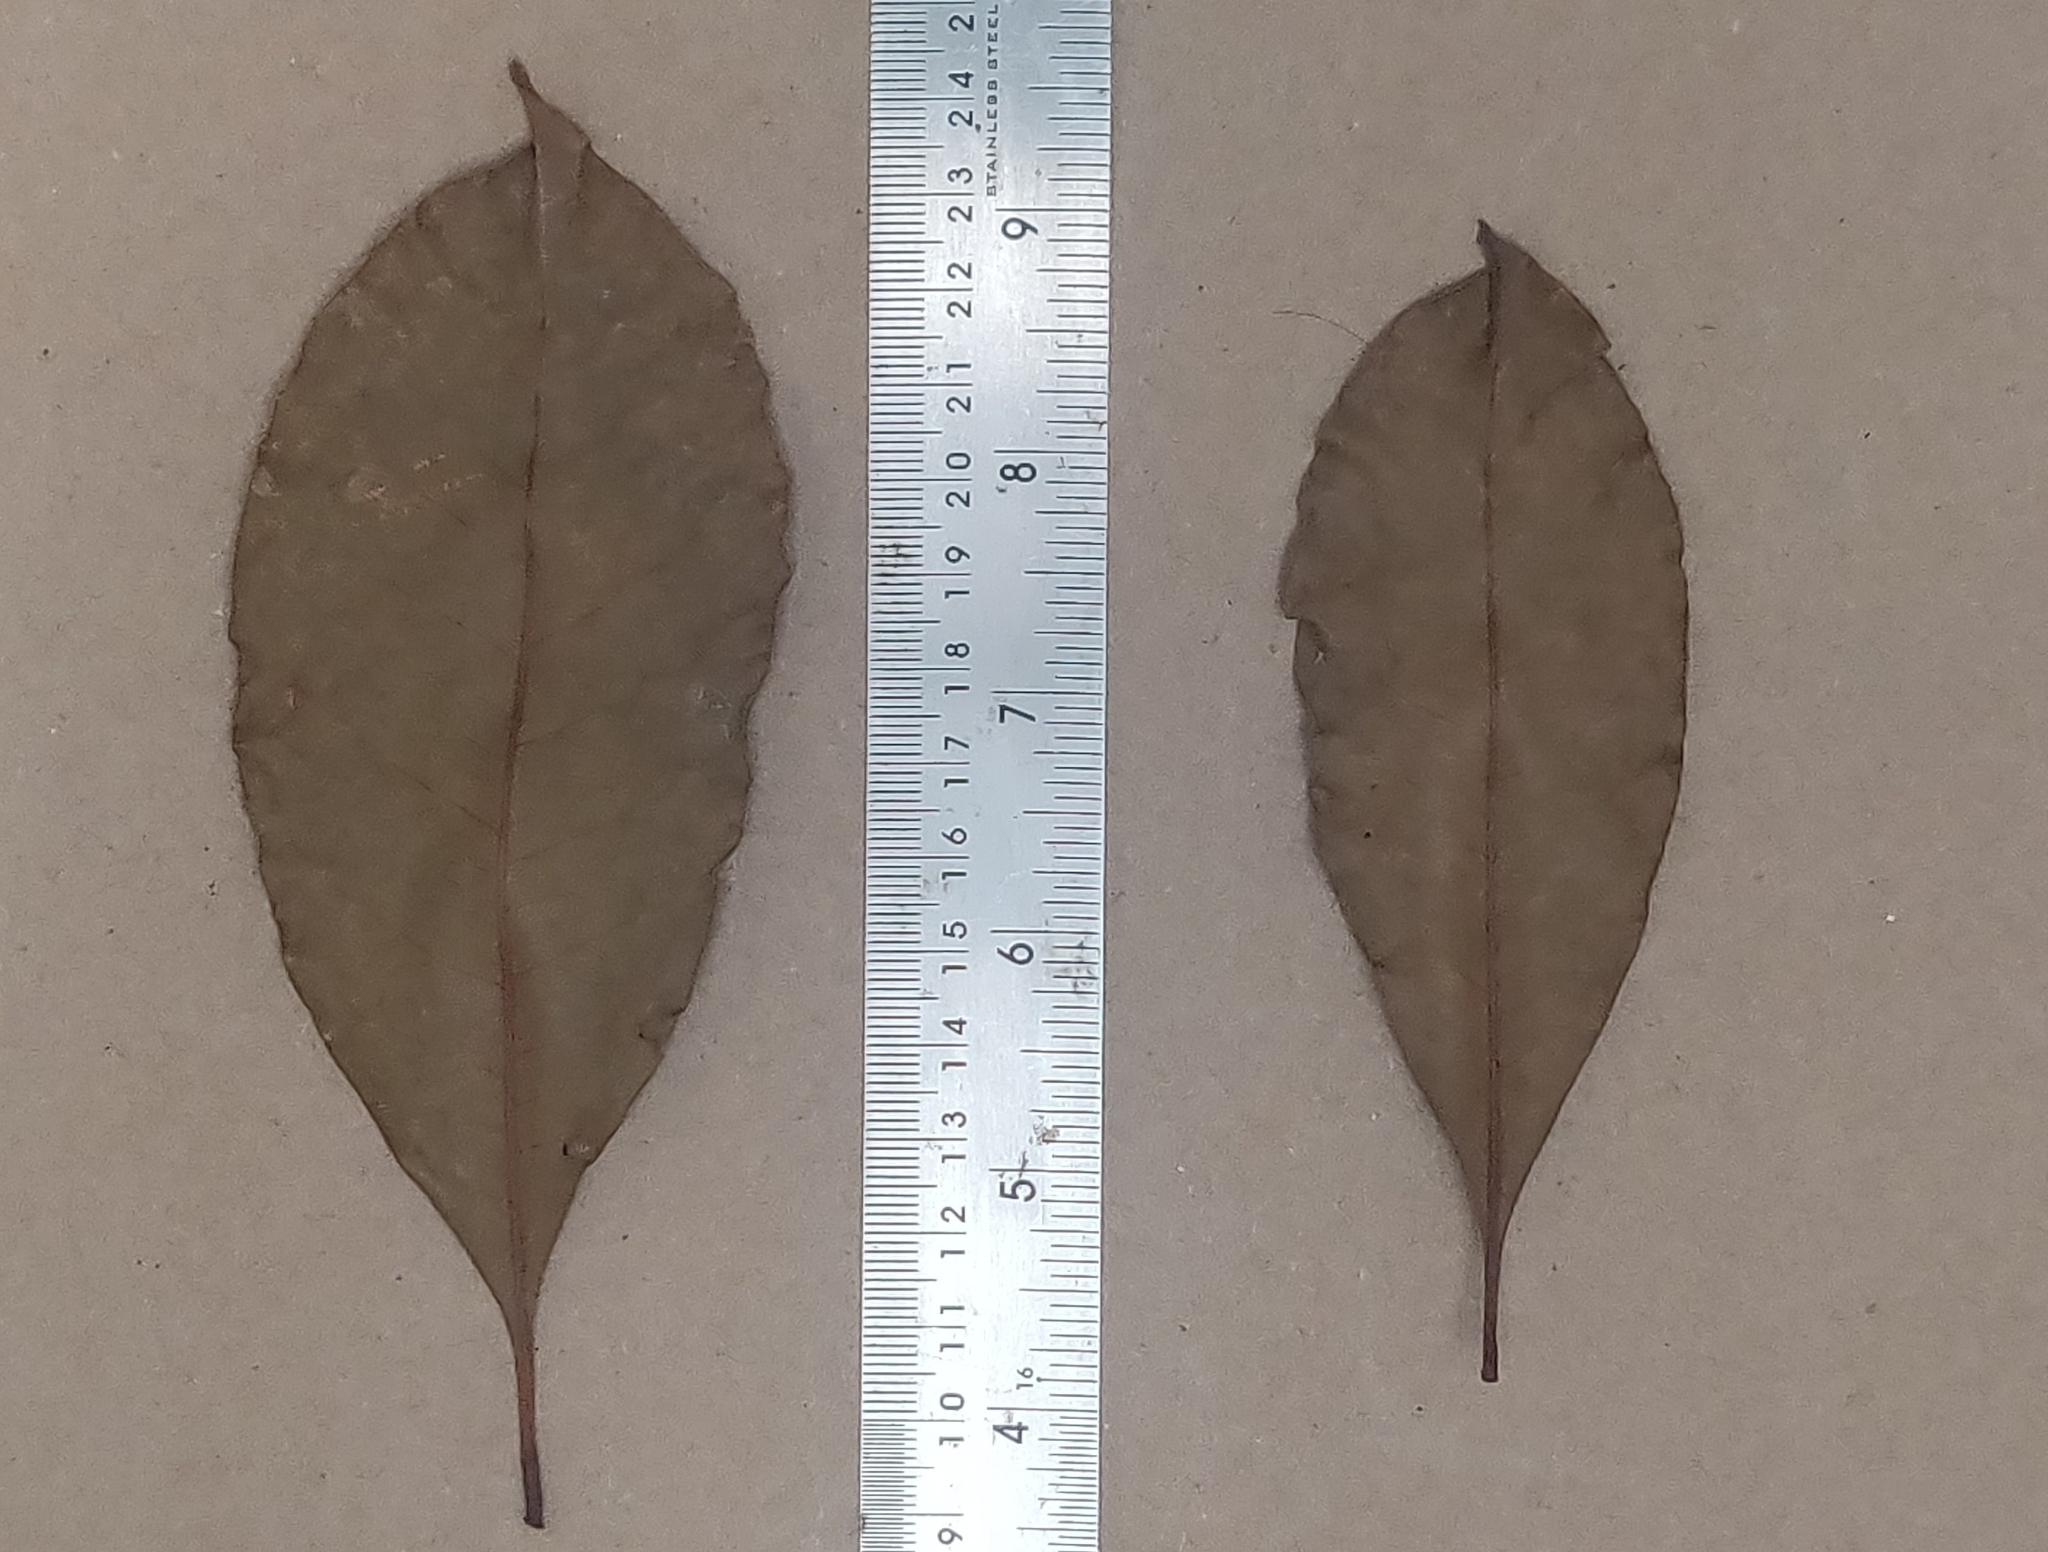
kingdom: Plantae
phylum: Tracheophyta
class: Magnoliopsida
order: Lamiales
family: Oleaceae
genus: Chionanthus
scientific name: Chionanthus mala-elengi
